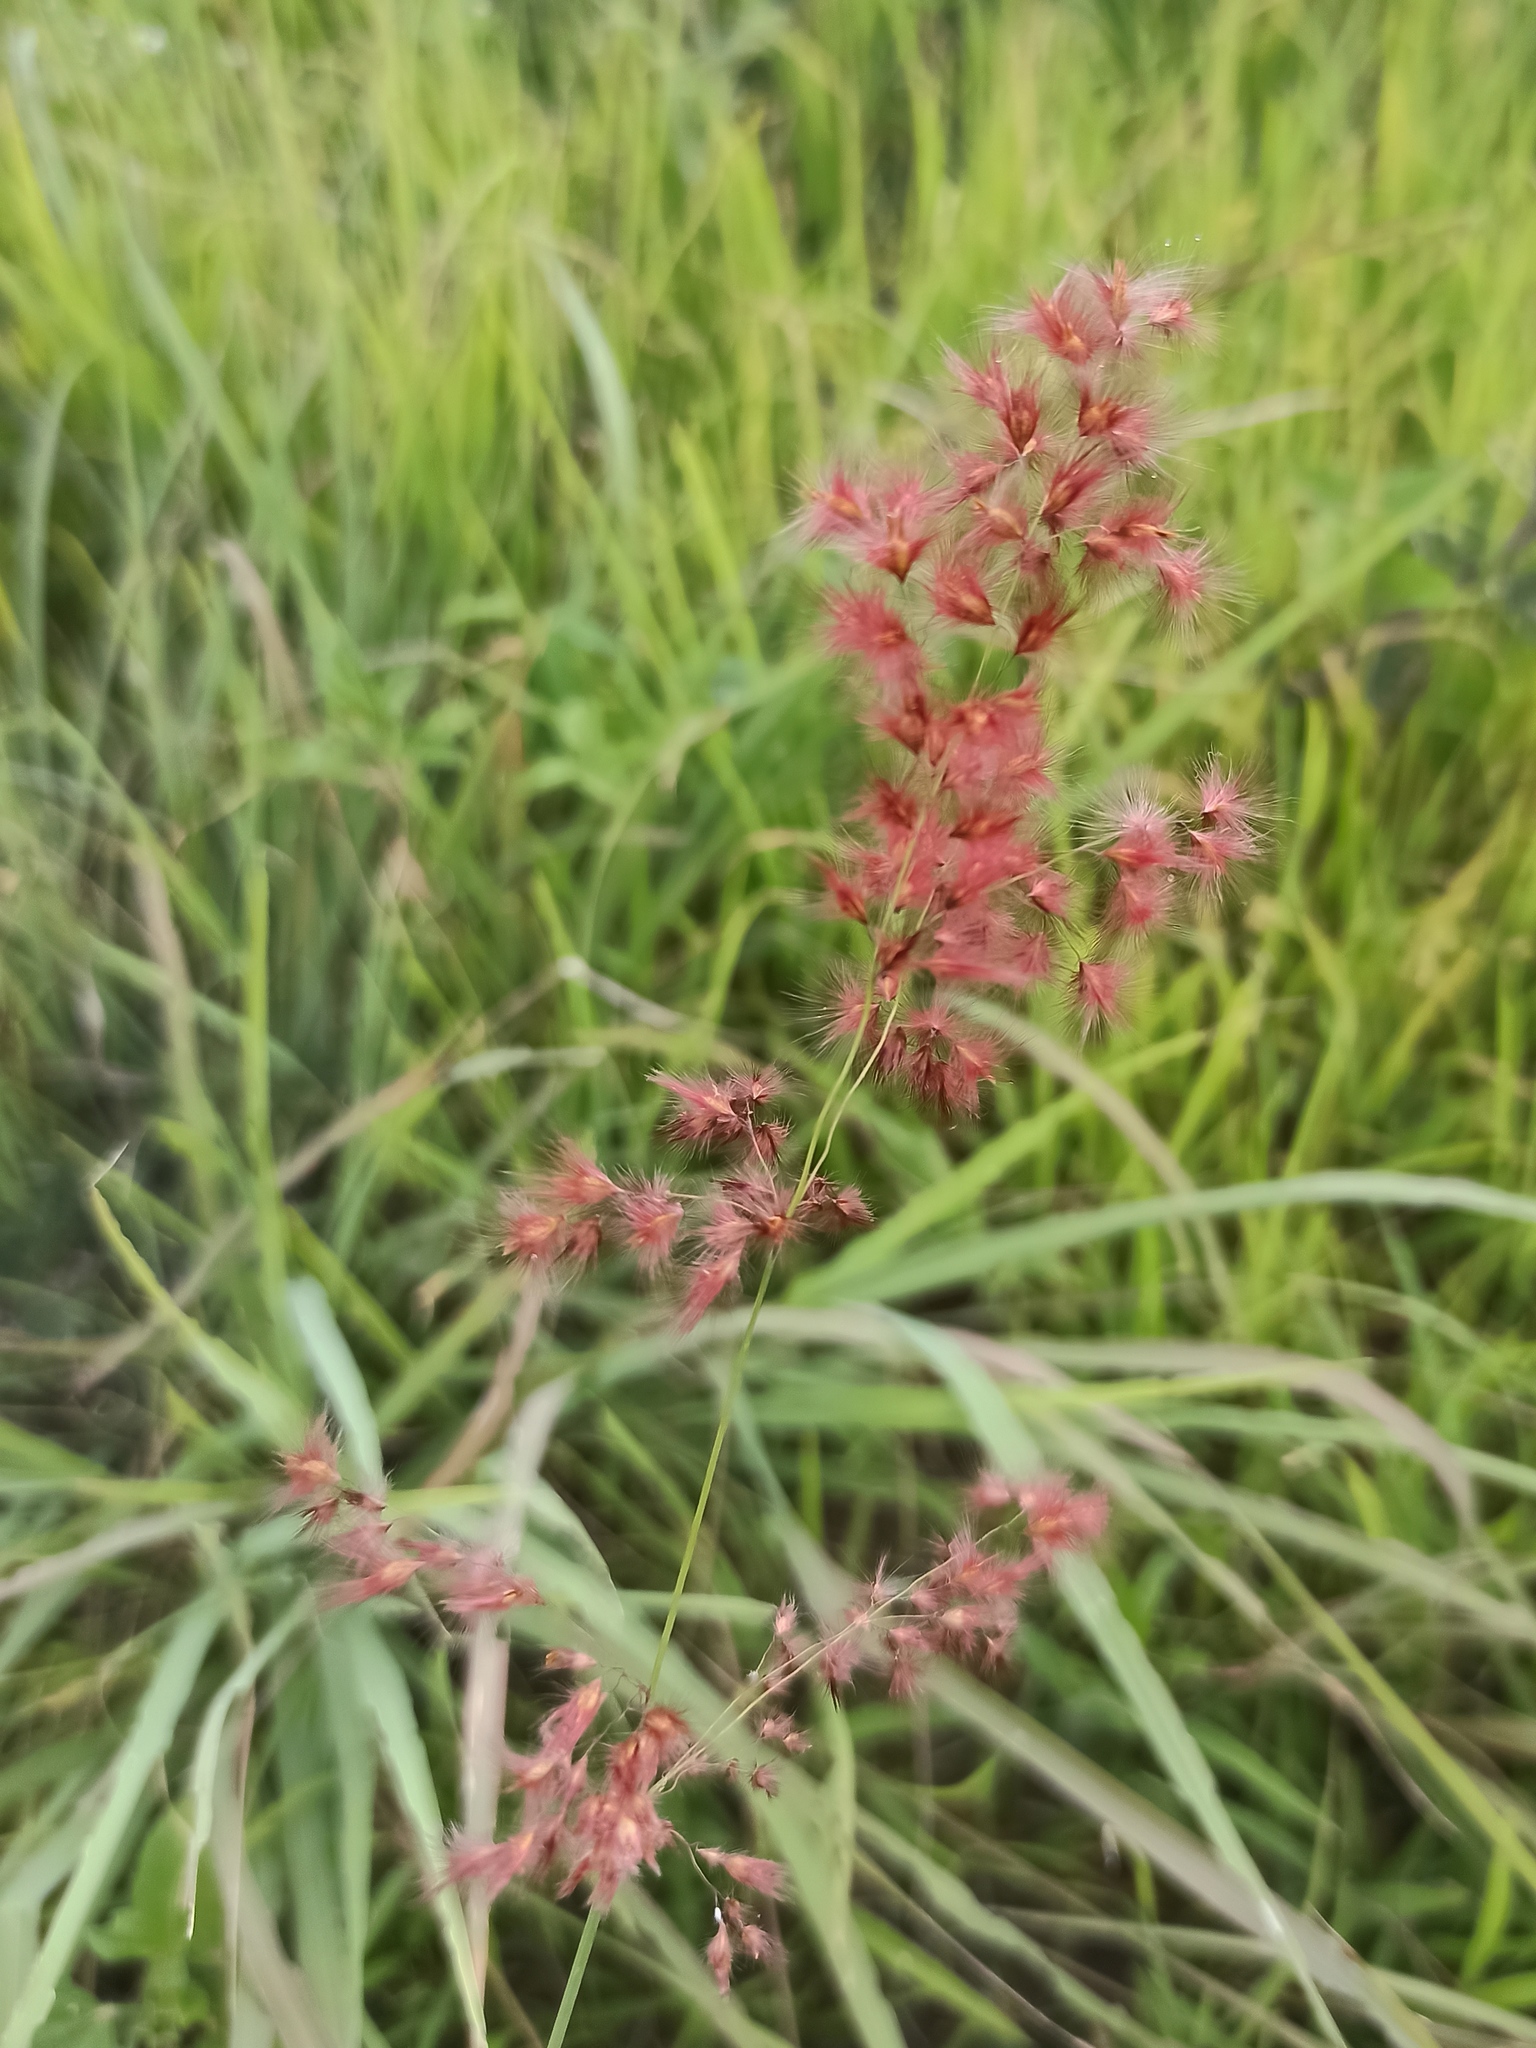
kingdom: Plantae
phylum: Tracheophyta
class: Liliopsida
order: Poales
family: Poaceae
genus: Melinis
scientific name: Melinis repens
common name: Rose natal grass
